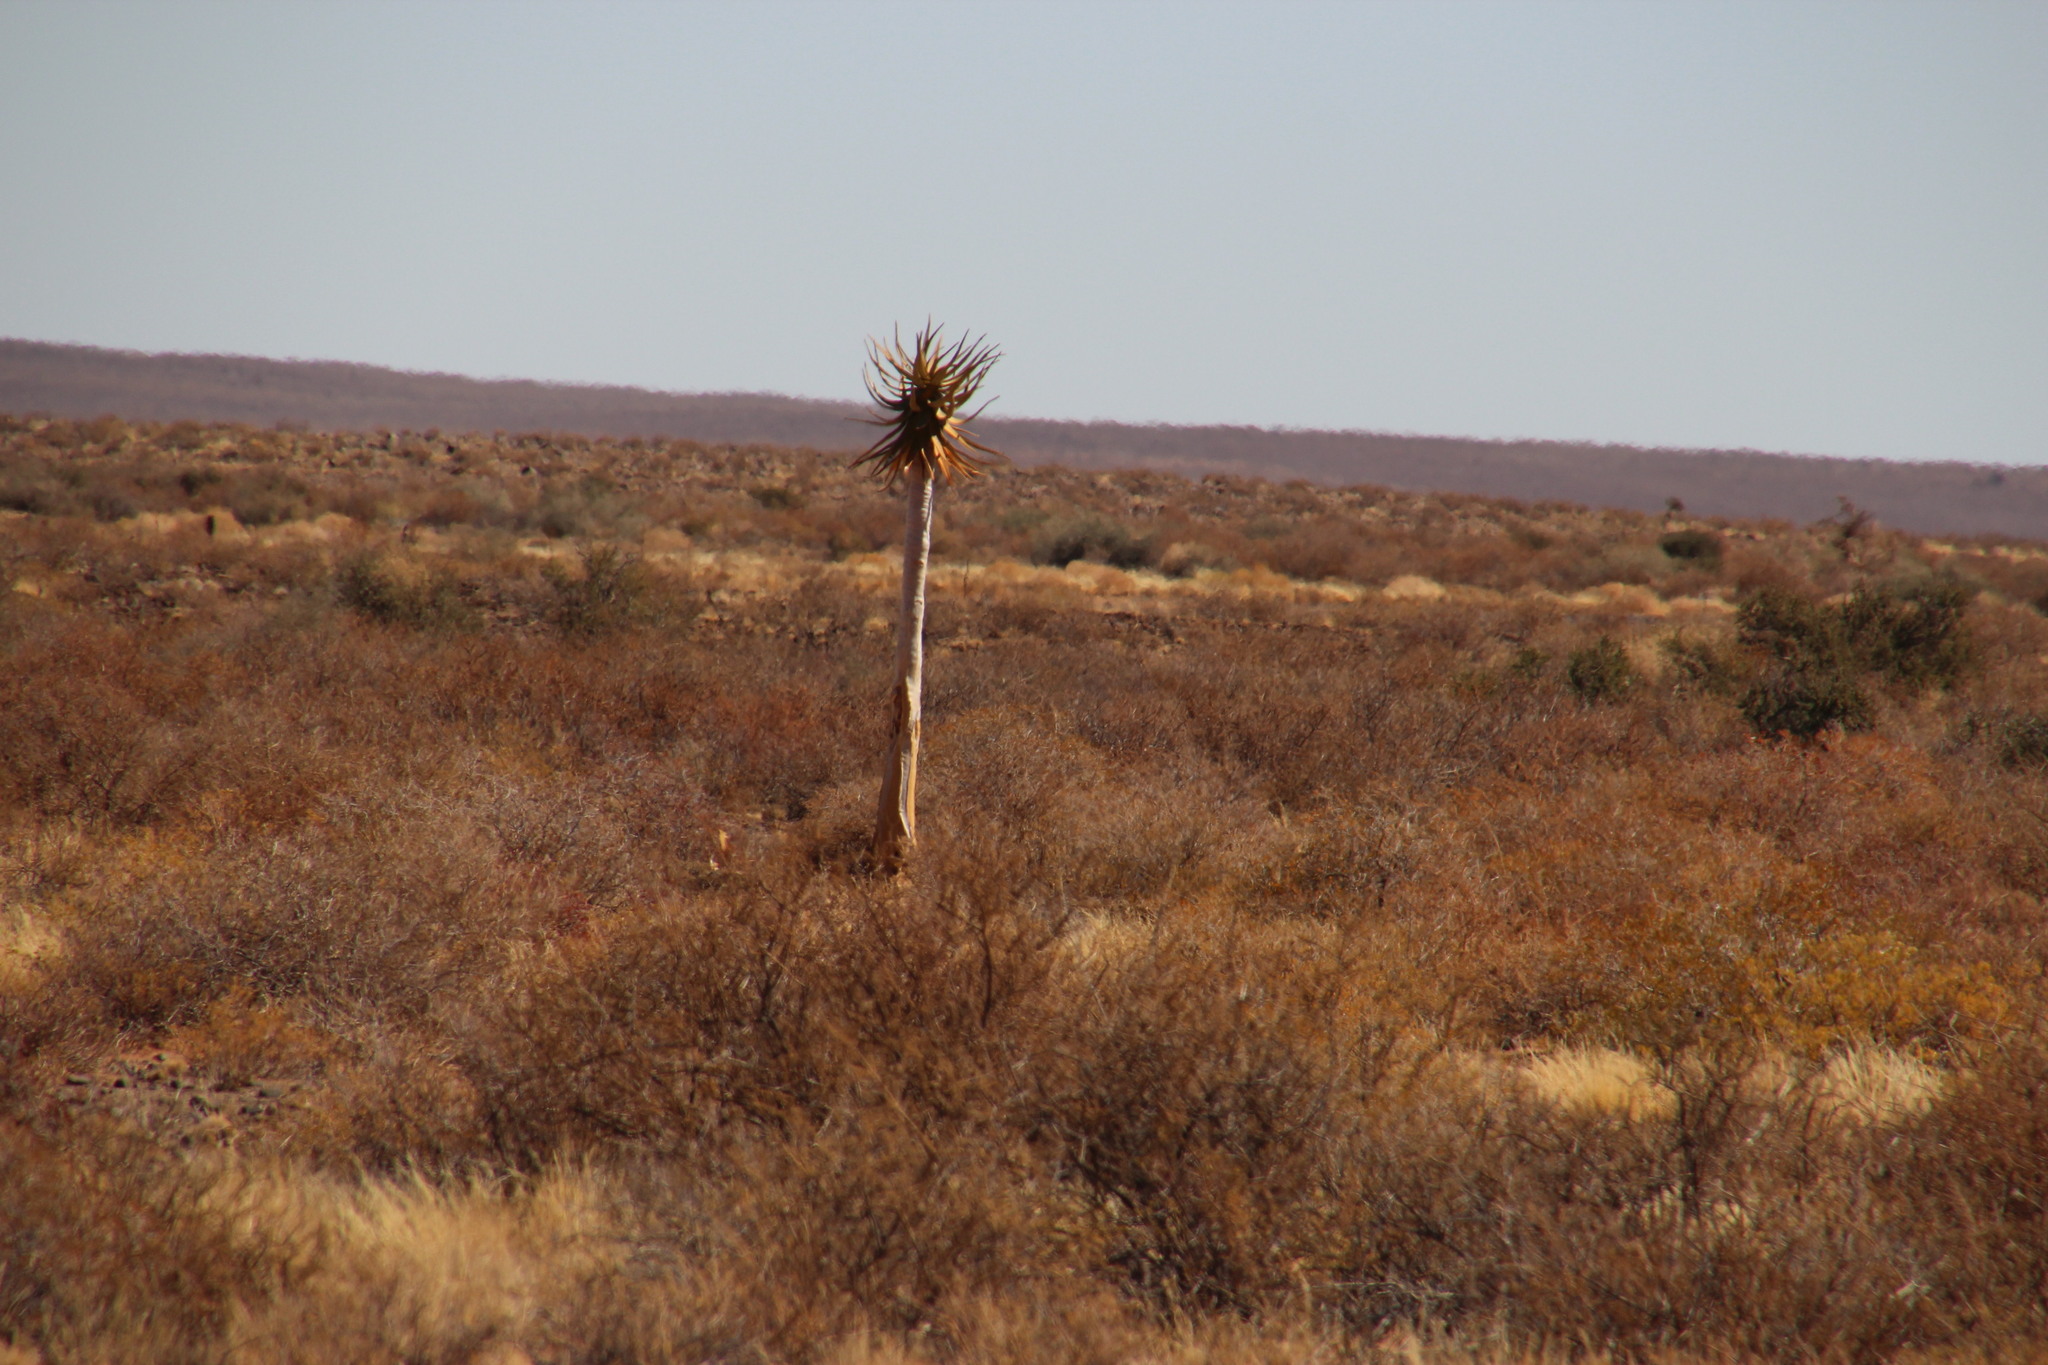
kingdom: Plantae
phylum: Tracheophyta
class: Liliopsida
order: Asparagales
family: Asphodelaceae
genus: Aloidendron
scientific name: Aloidendron dichotomum
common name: Quiver tree
